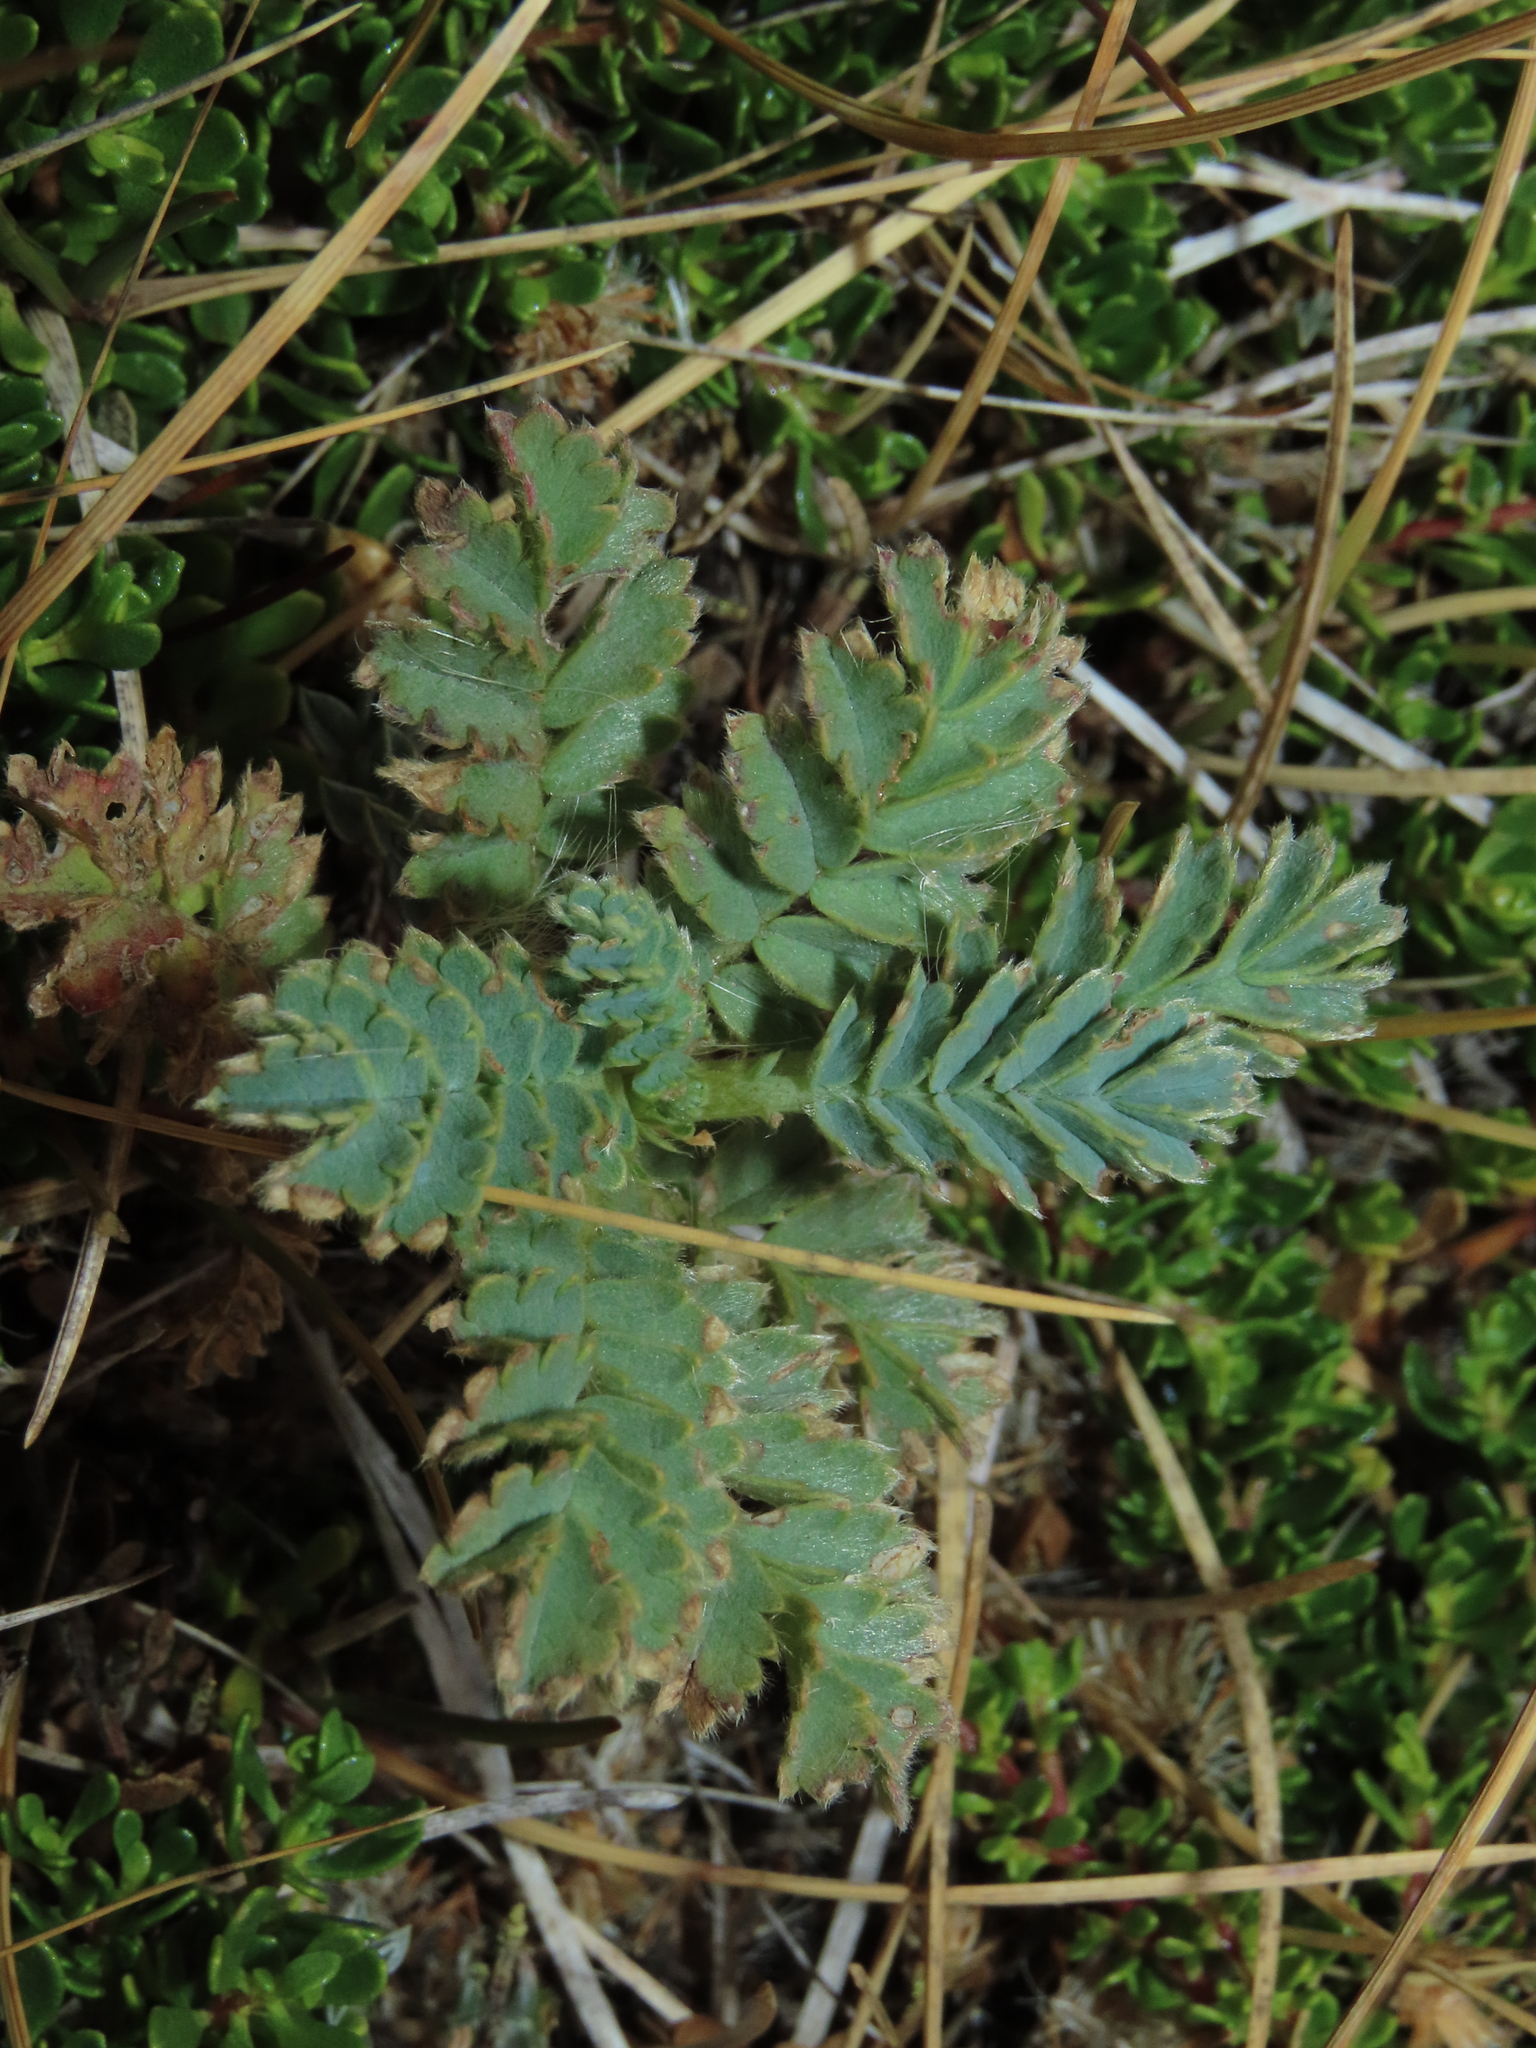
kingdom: Plantae
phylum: Tracheophyta
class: Magnoliopsida
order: Rosales
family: Rosaceae
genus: Acaena
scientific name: Acaena magellanica
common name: New zealand burr
